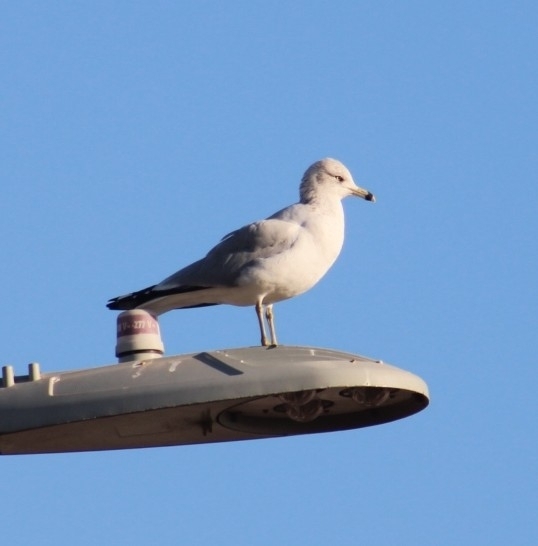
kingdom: Animalia
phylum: Chordata
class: Aves
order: Charadriiformes
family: Laridae
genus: Larus
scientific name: Larus delawarensis
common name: Ring-billed gull
